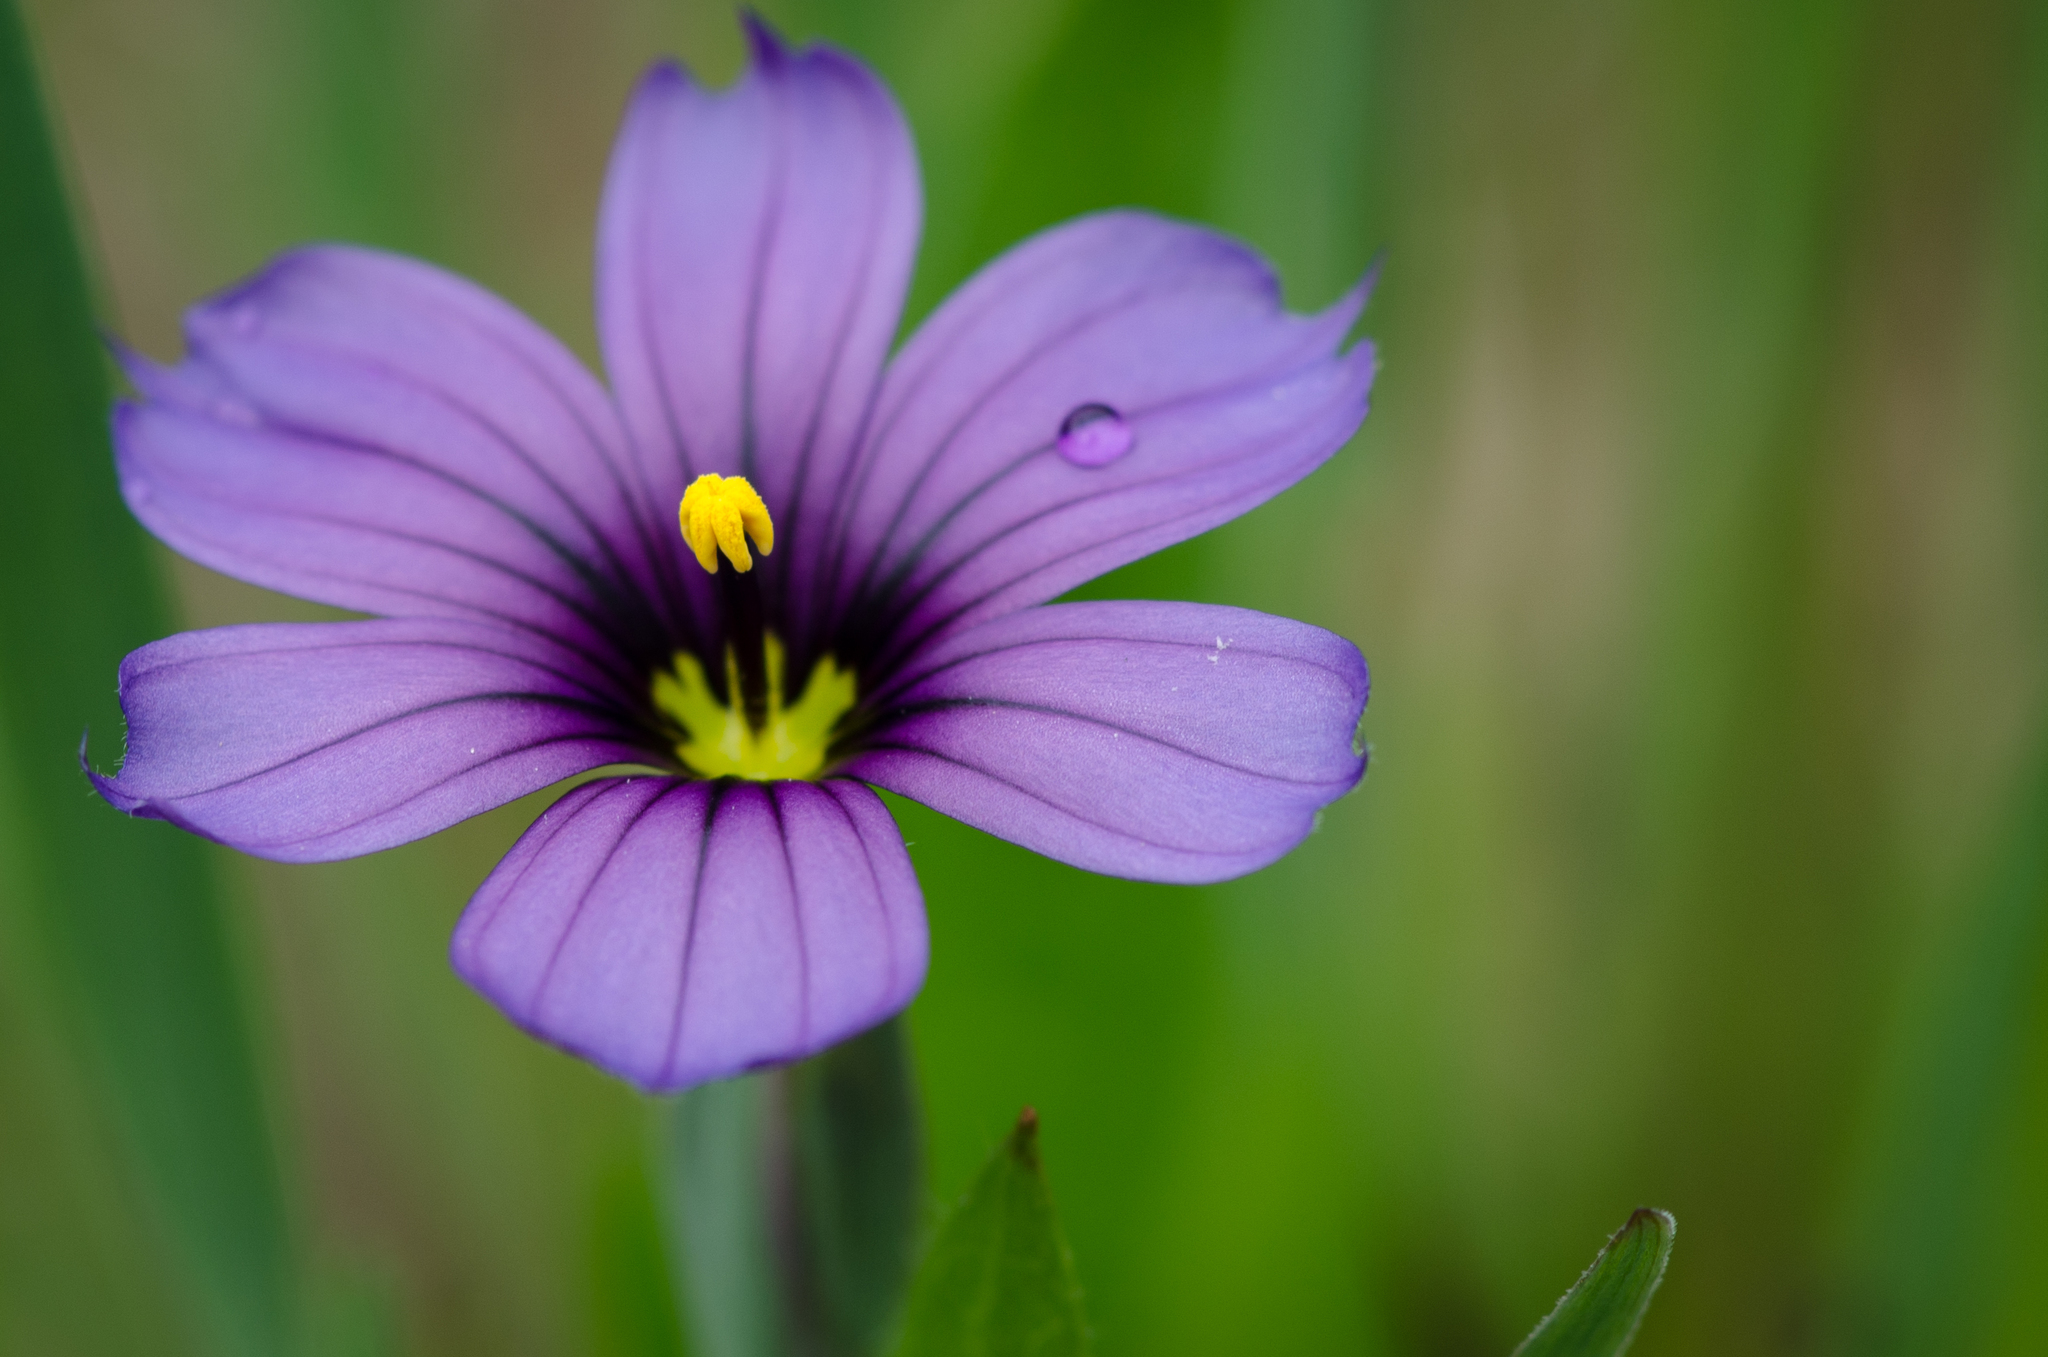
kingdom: Plantae
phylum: Tracheophyta
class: Liliopsida
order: Asparagales
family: Iridaceae
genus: Sisyrinchium
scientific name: Sisyrinchium bellum
